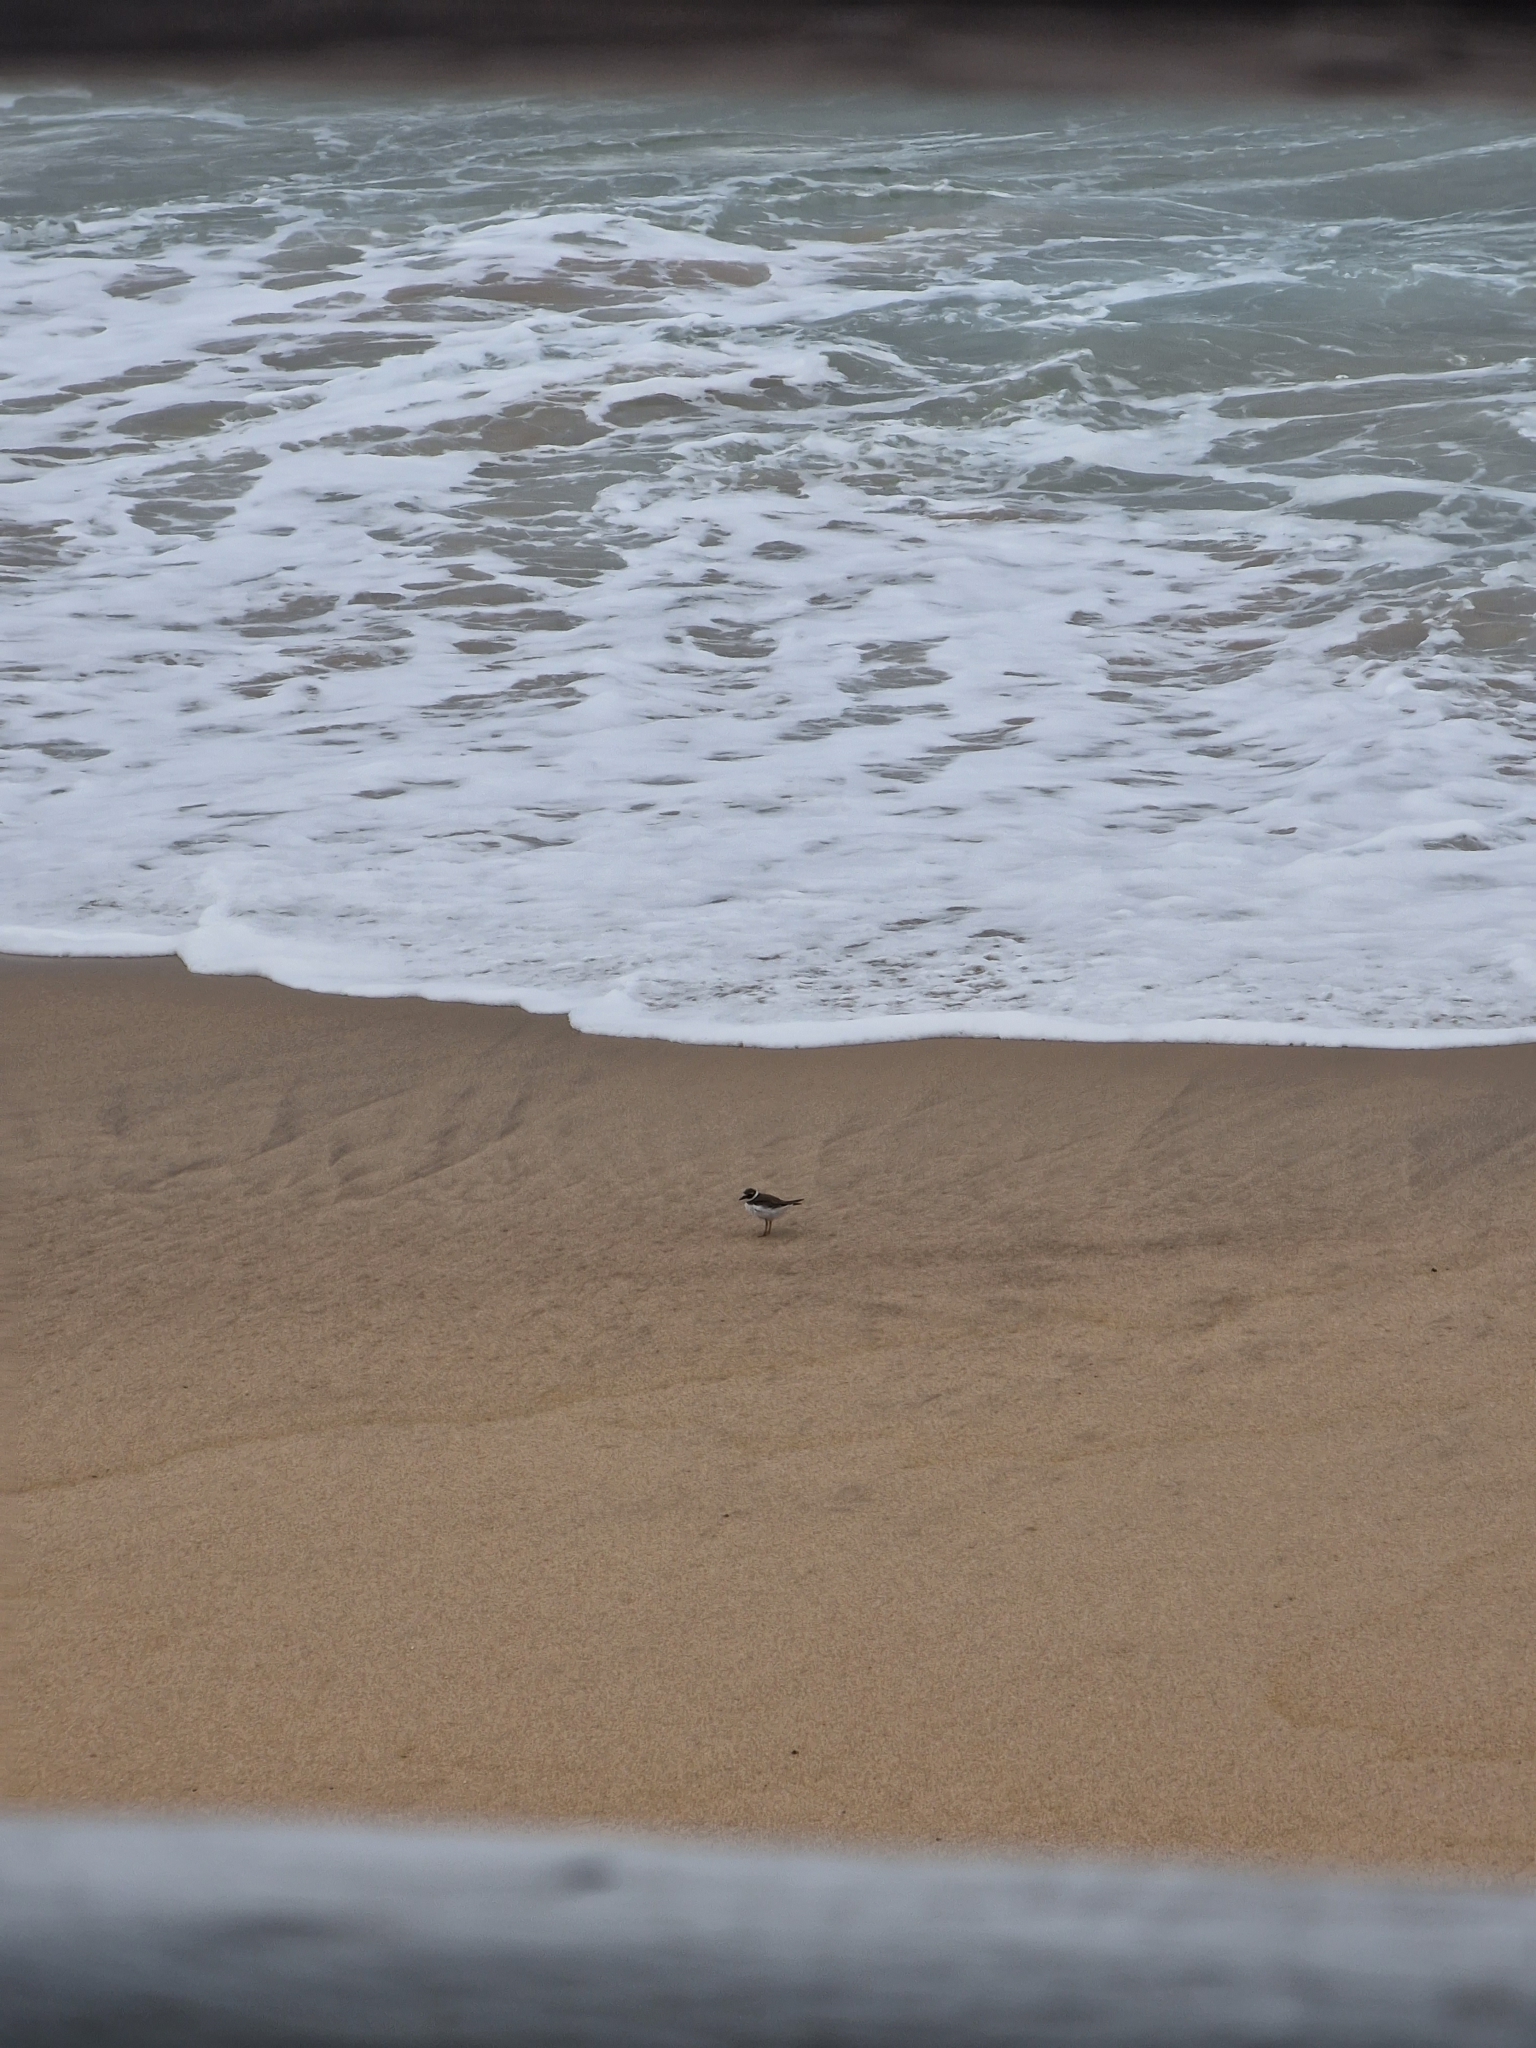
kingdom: Animalia
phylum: Chordata
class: Aves
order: Charadriiformes
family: Charadriidae
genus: Charadrius
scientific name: Charadrius hiaticula
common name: Common ringed plover
